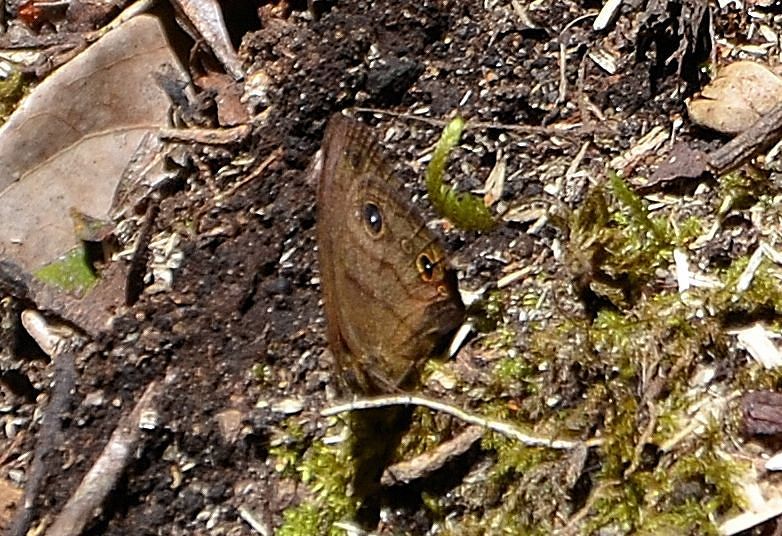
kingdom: Animalia
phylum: Arthropoda
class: Insecta
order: Lepidoptera
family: Nymphalidae
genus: Hermeuptychia
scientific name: Hermeuptychia harmonia
